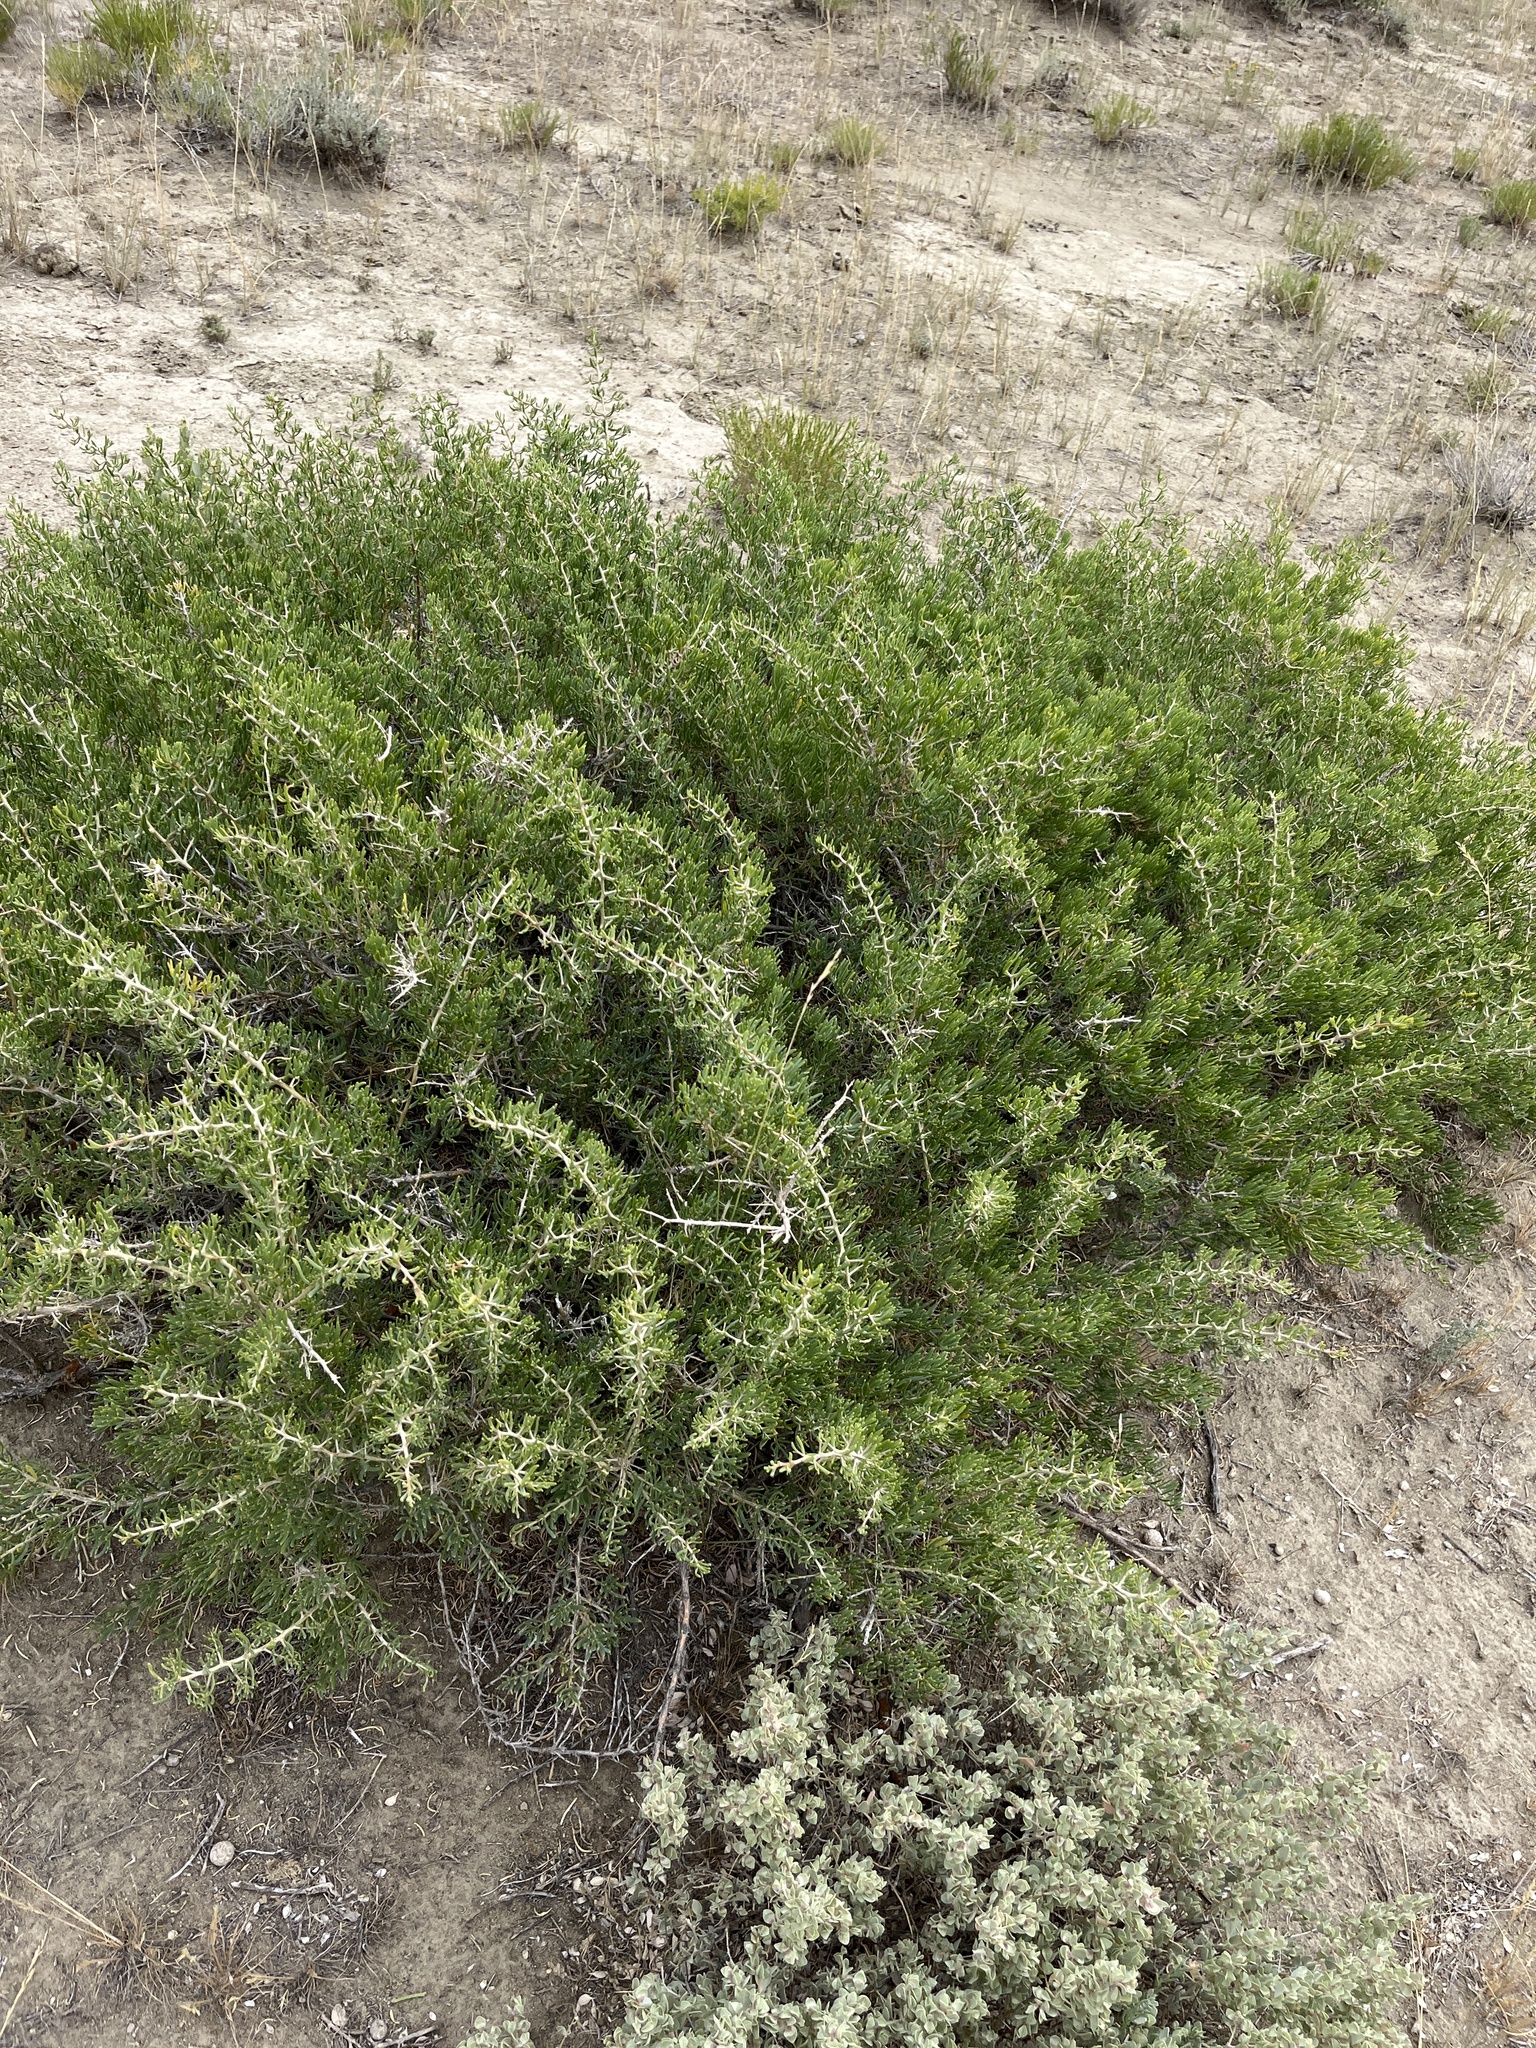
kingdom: Plantae
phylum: Tracheophyta
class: Magnoliopsida
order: Caryophyllales
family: Sarcobataceae
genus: Sarcobatus
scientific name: Sarcobatus vermiculatus
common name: Greasewood
